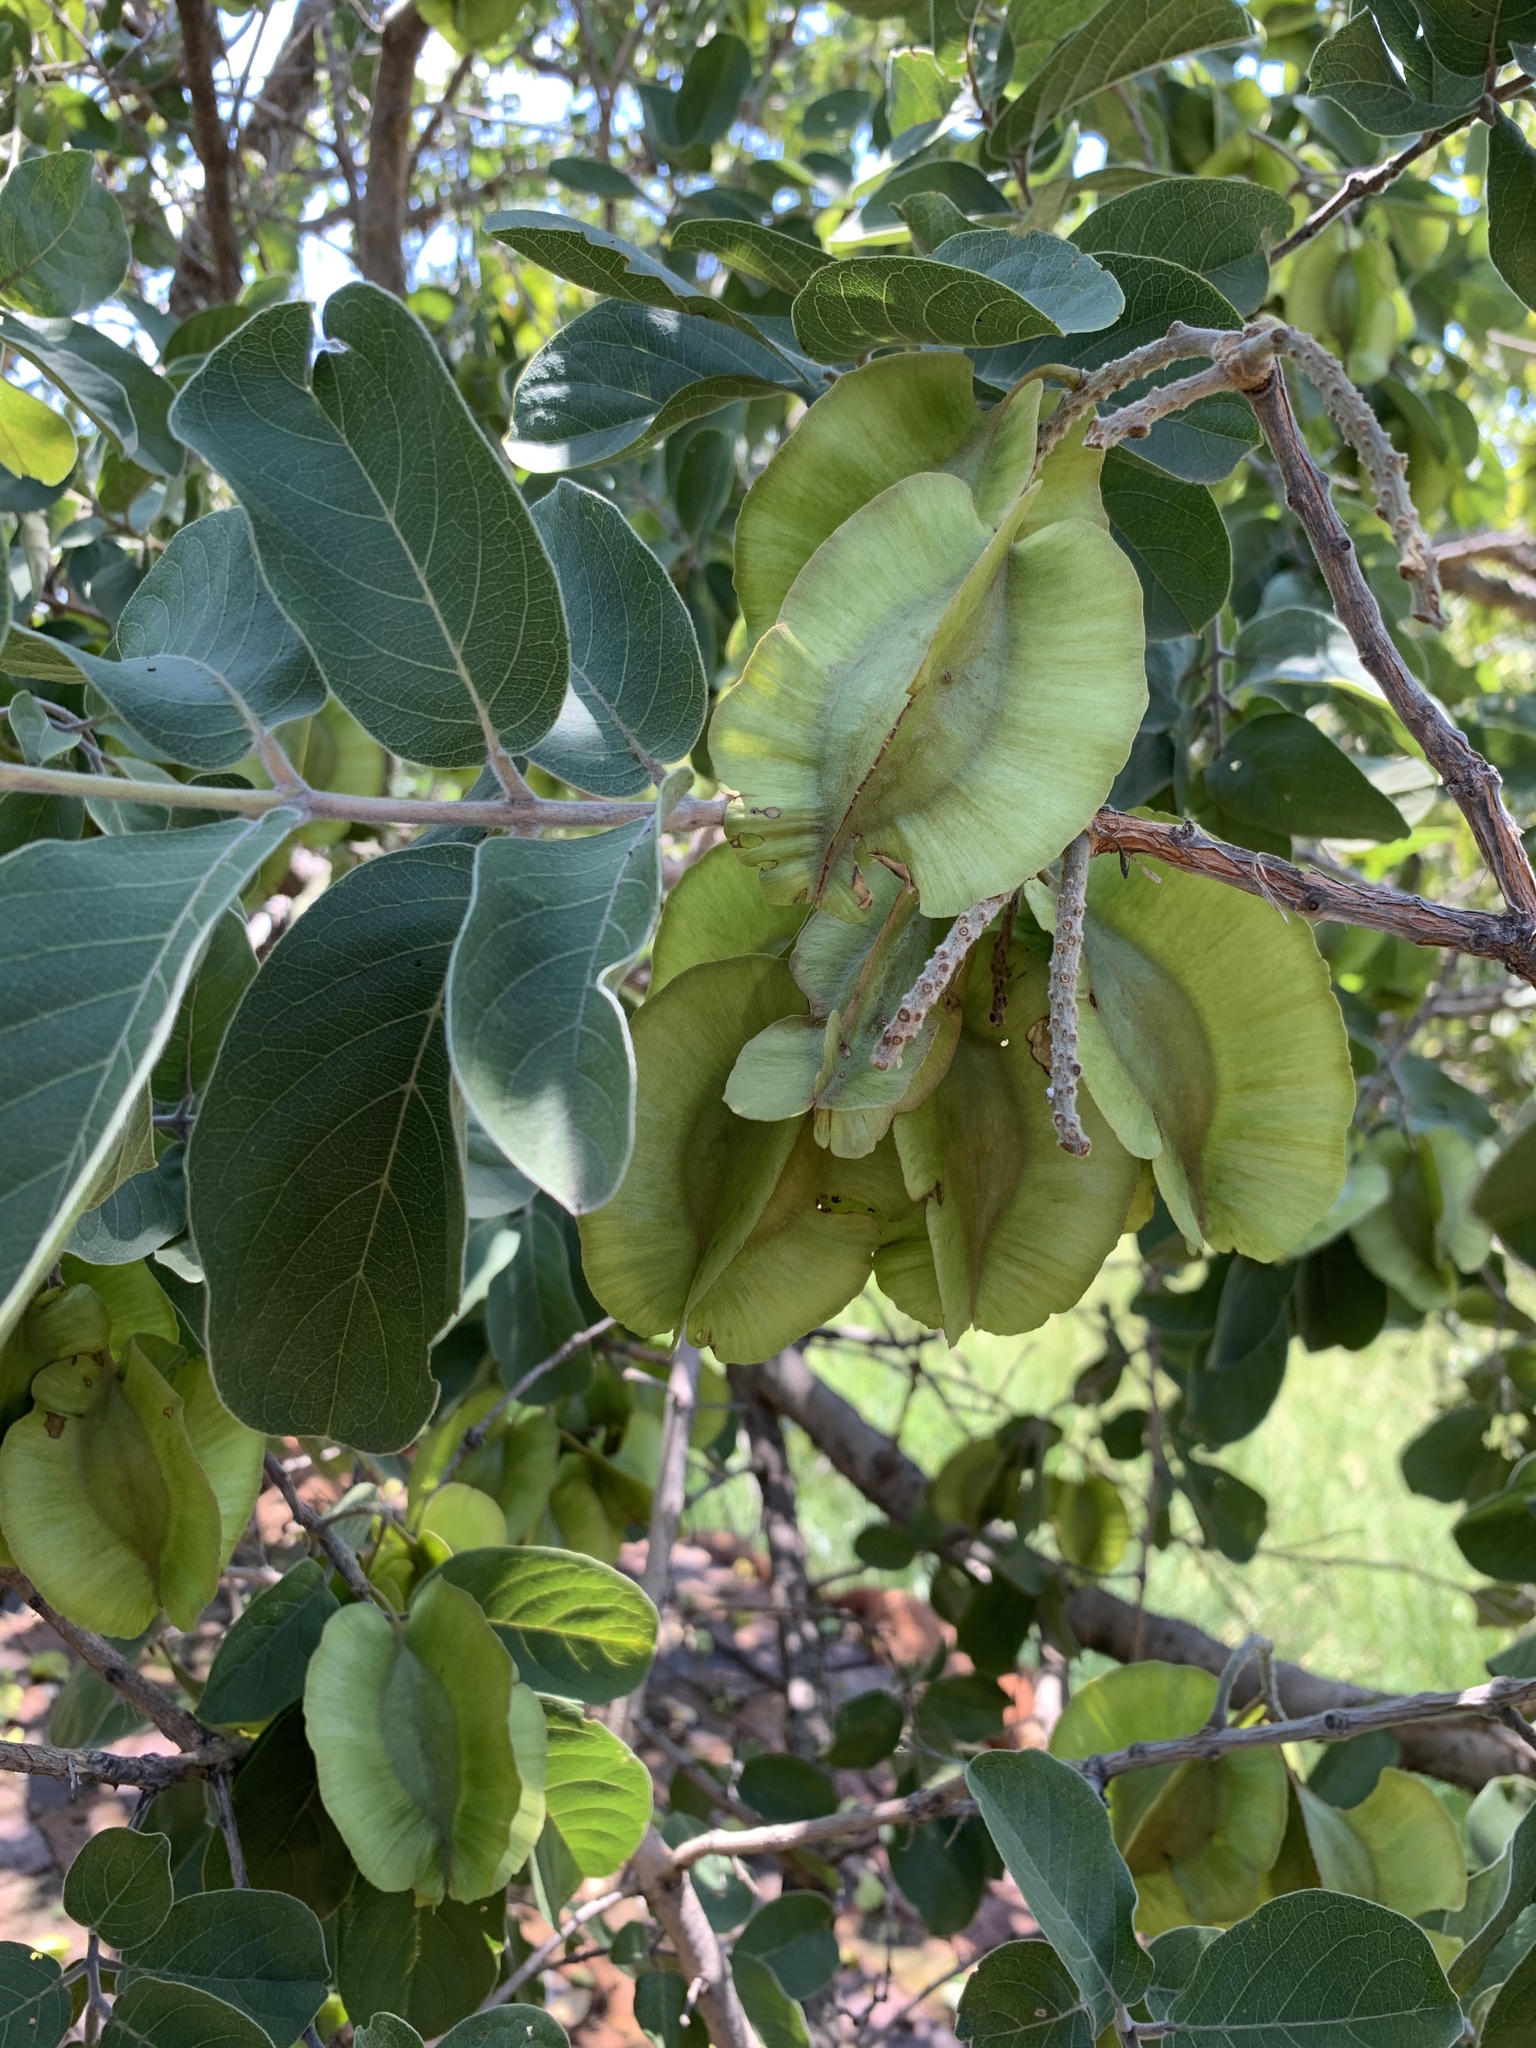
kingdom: Plantae
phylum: Tracheophyta
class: Magnoliopsida
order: Myrtales
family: Combretaceae
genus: Combretum
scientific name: Combretum zeyheri
